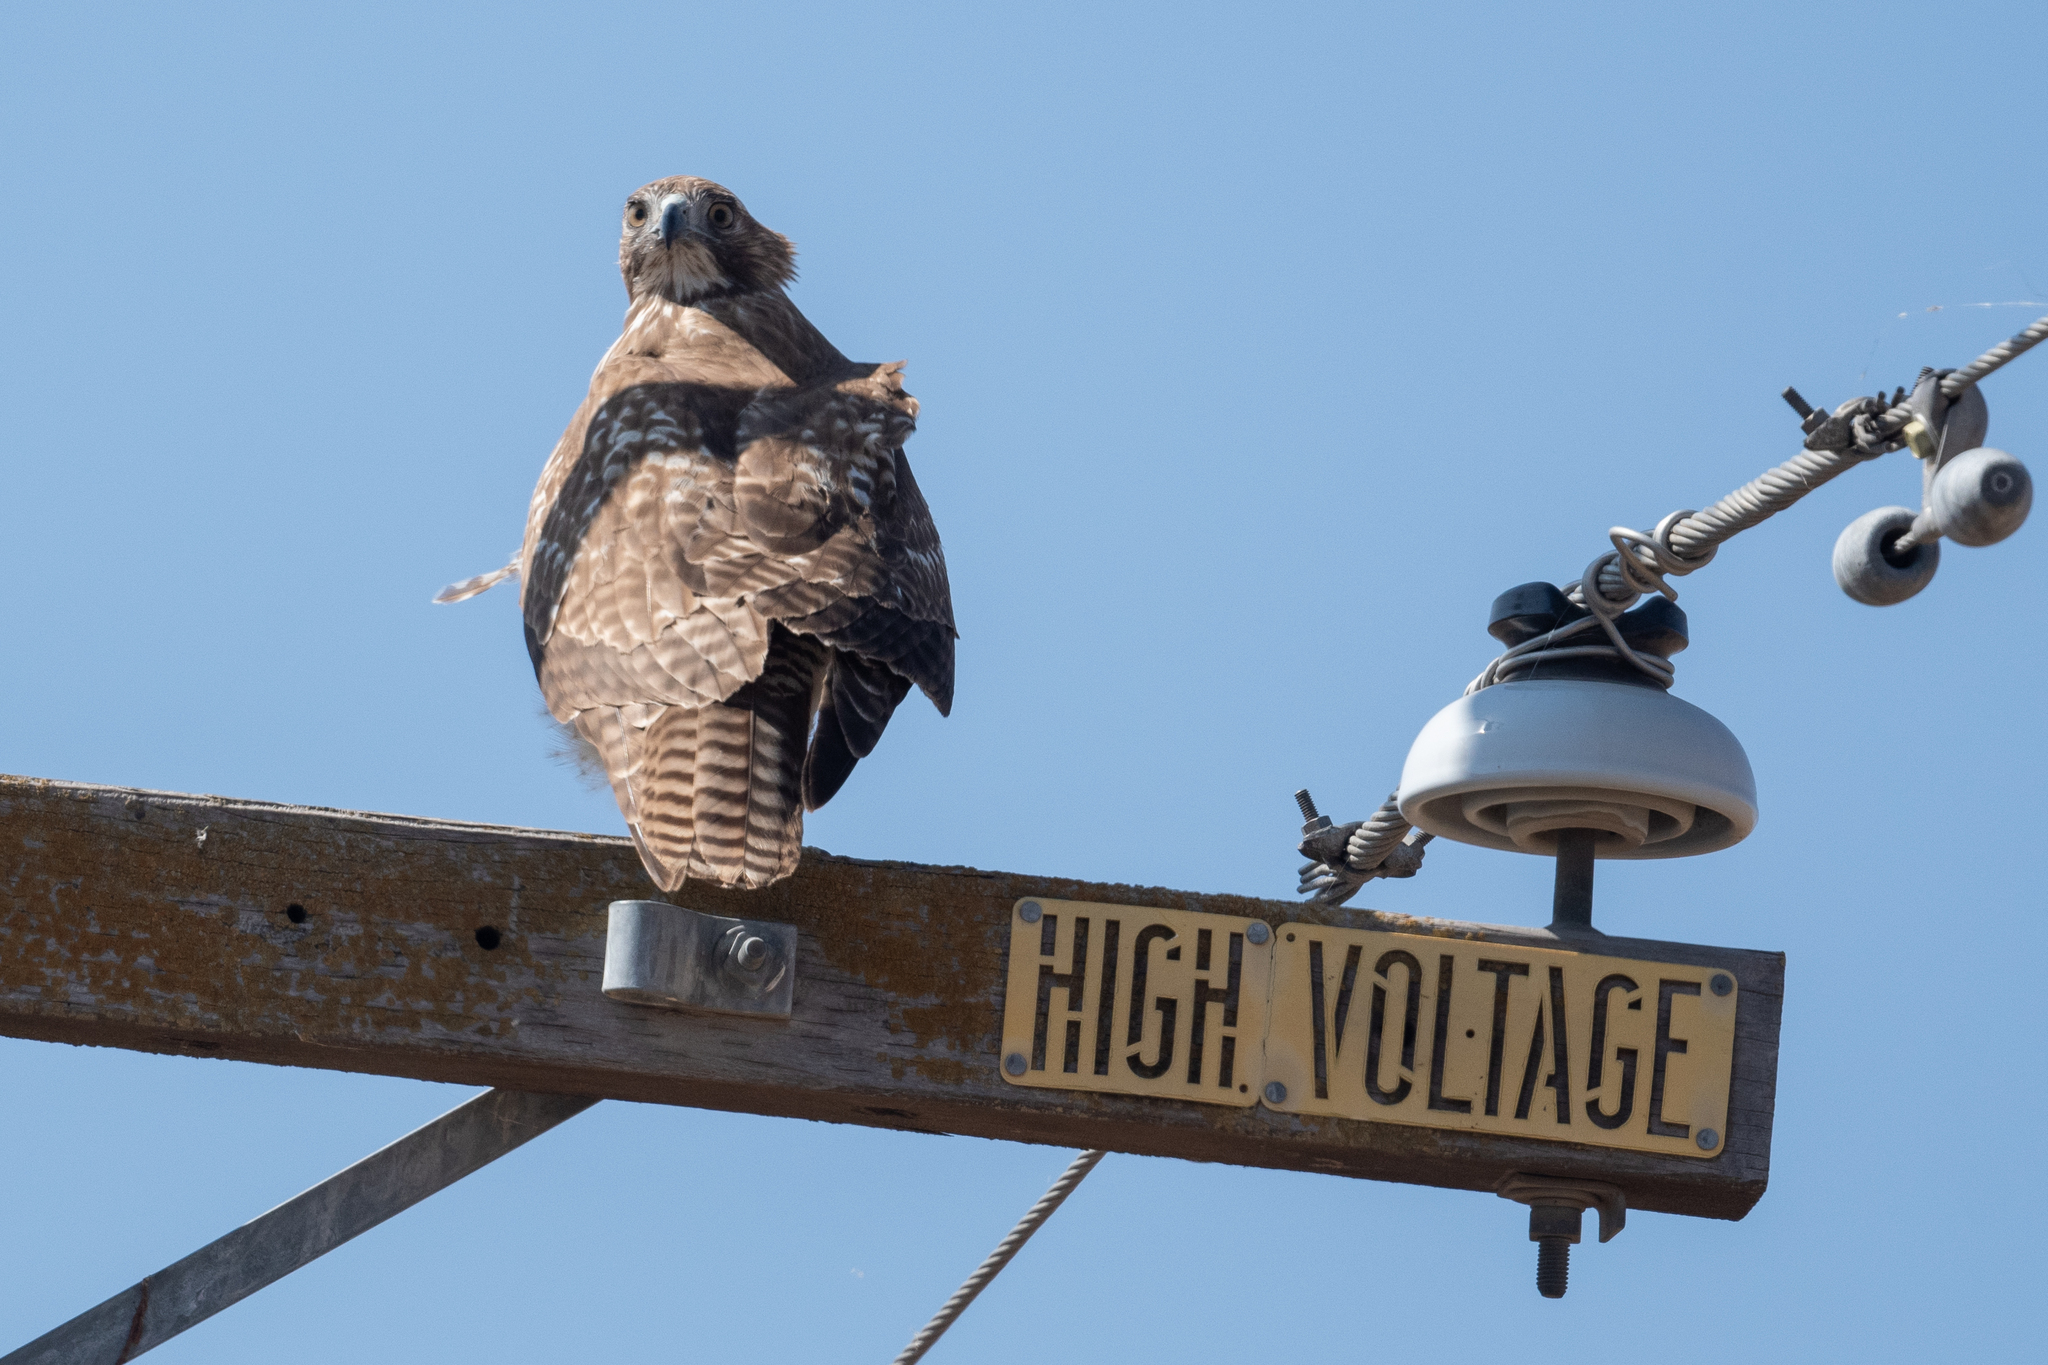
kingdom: Animalia
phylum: Chordata
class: Aves
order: Accipitriformes
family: Accipitridae
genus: Buteo
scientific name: Buteo jamaicensis
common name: Red-tailed hawk
